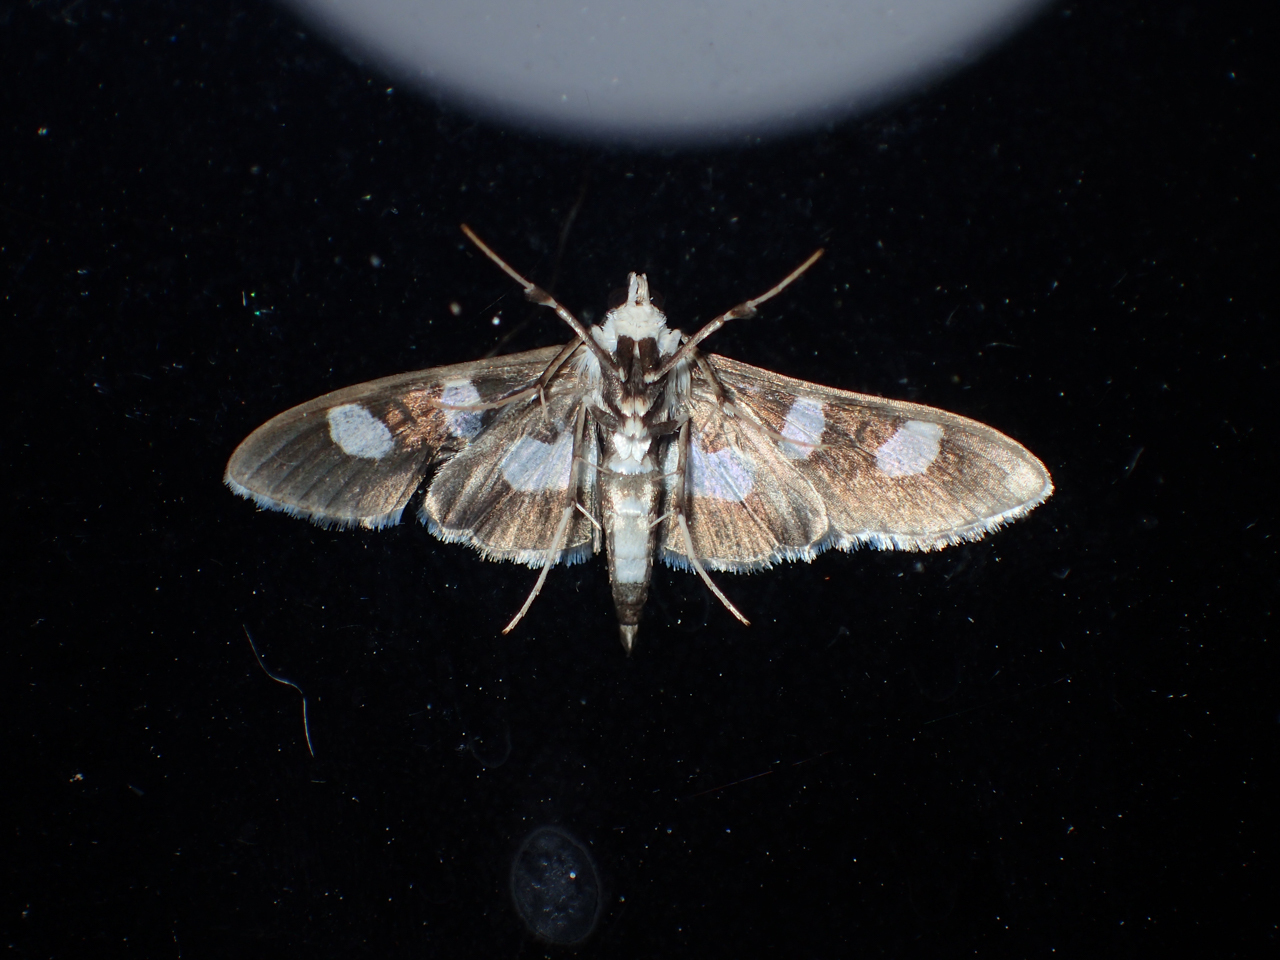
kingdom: Animalia
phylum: Arthropoda
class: Insecta
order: Lepidoptera
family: Crambidae
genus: Desmia
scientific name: Desmia funeralis
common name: Grape leaf folder moth
